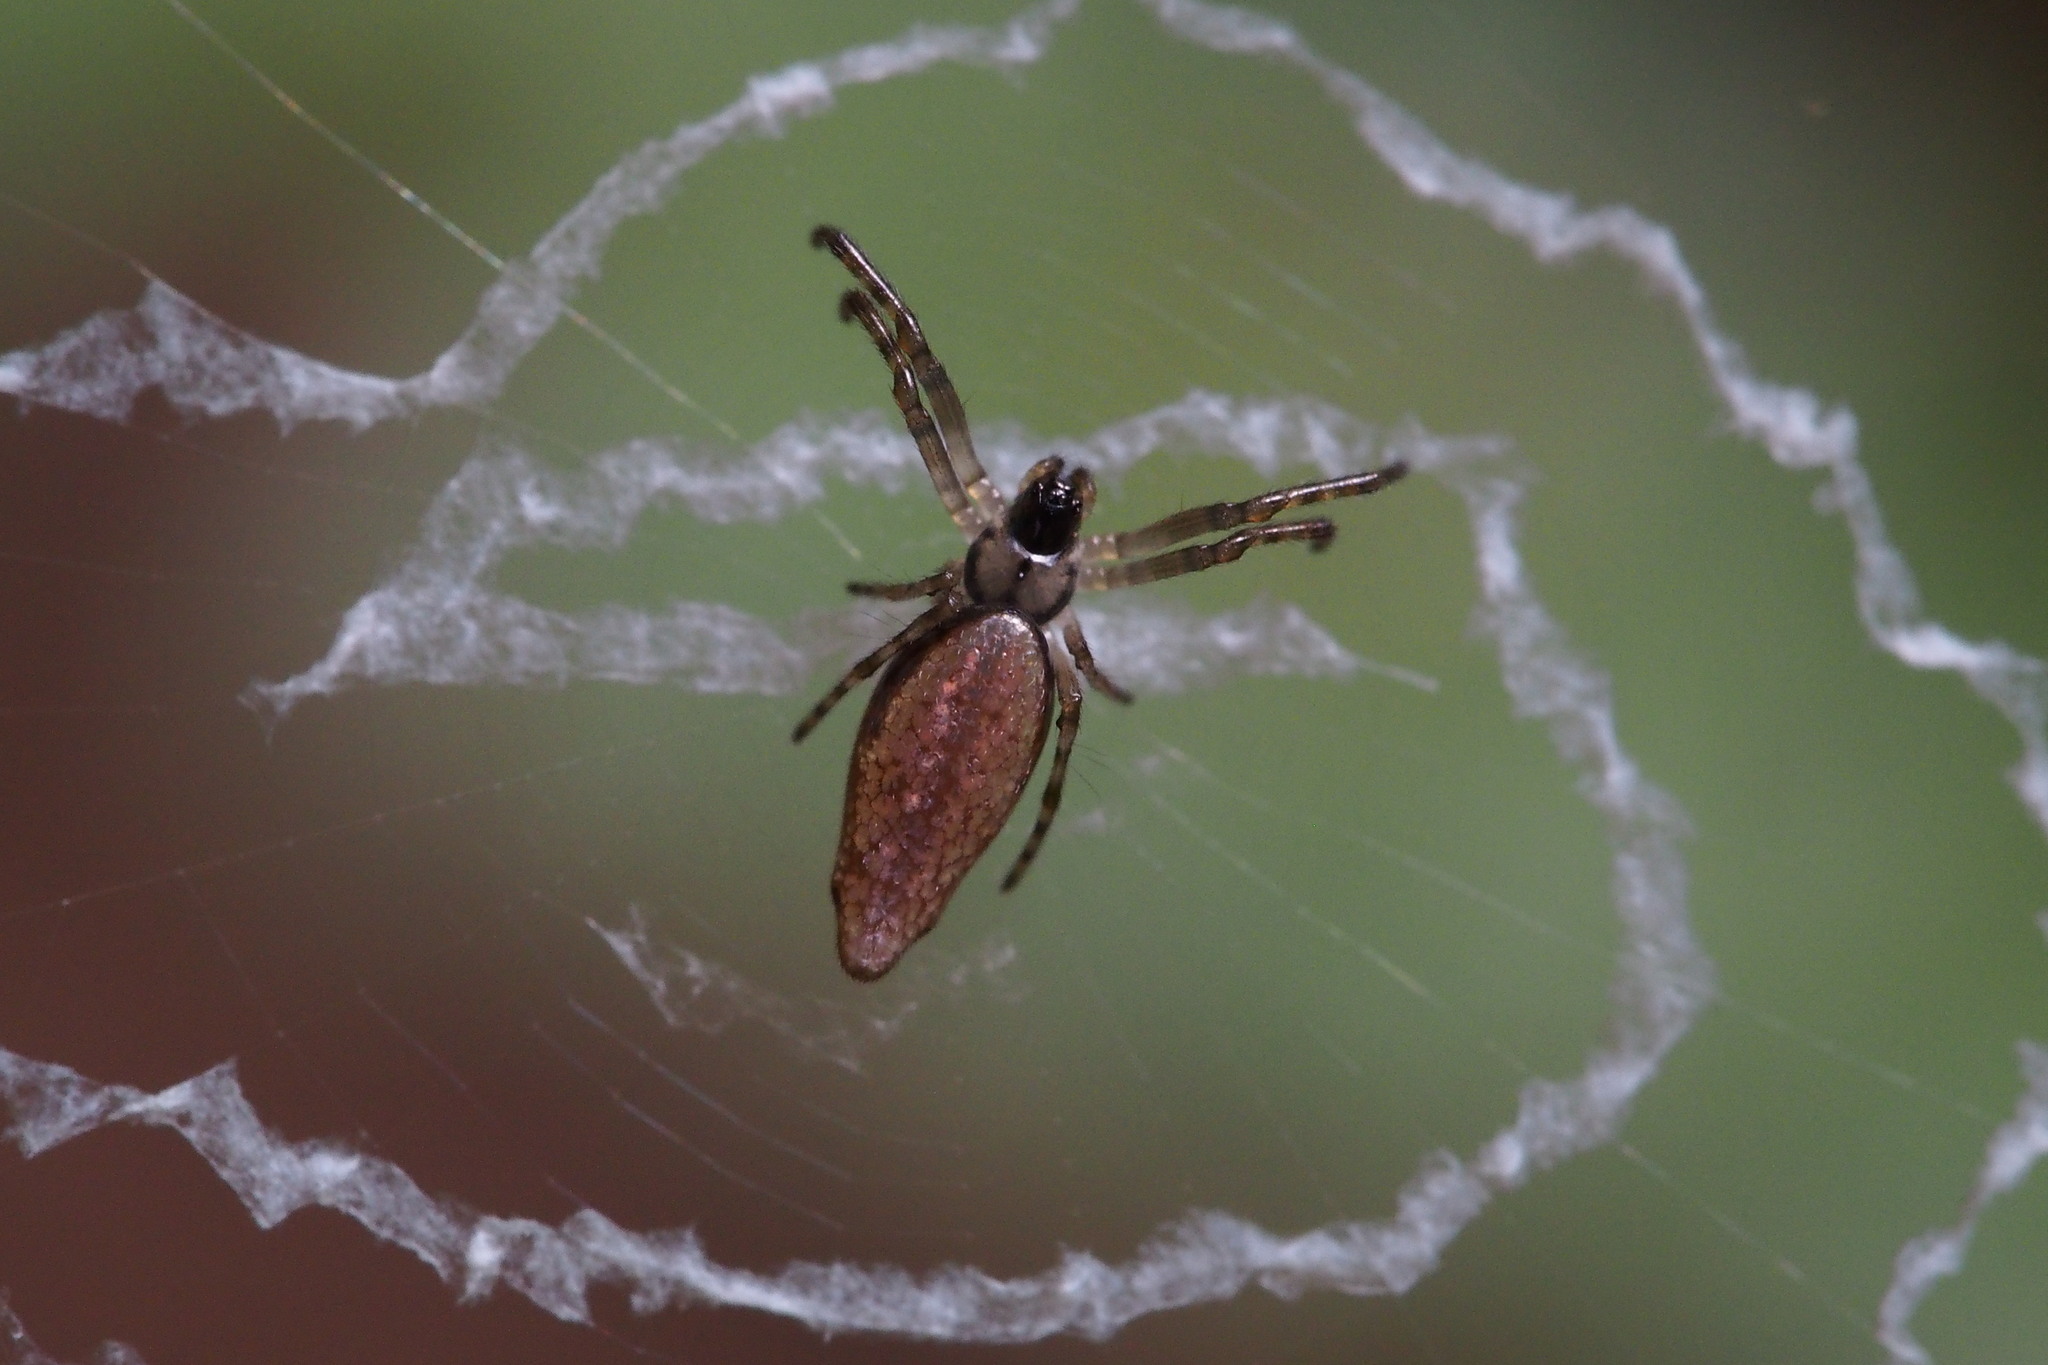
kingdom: Animalia
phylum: Arthropoda
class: Arachnida
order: Araneae
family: Araneidae
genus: Cyclosa
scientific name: Cyclosa ginnaga
